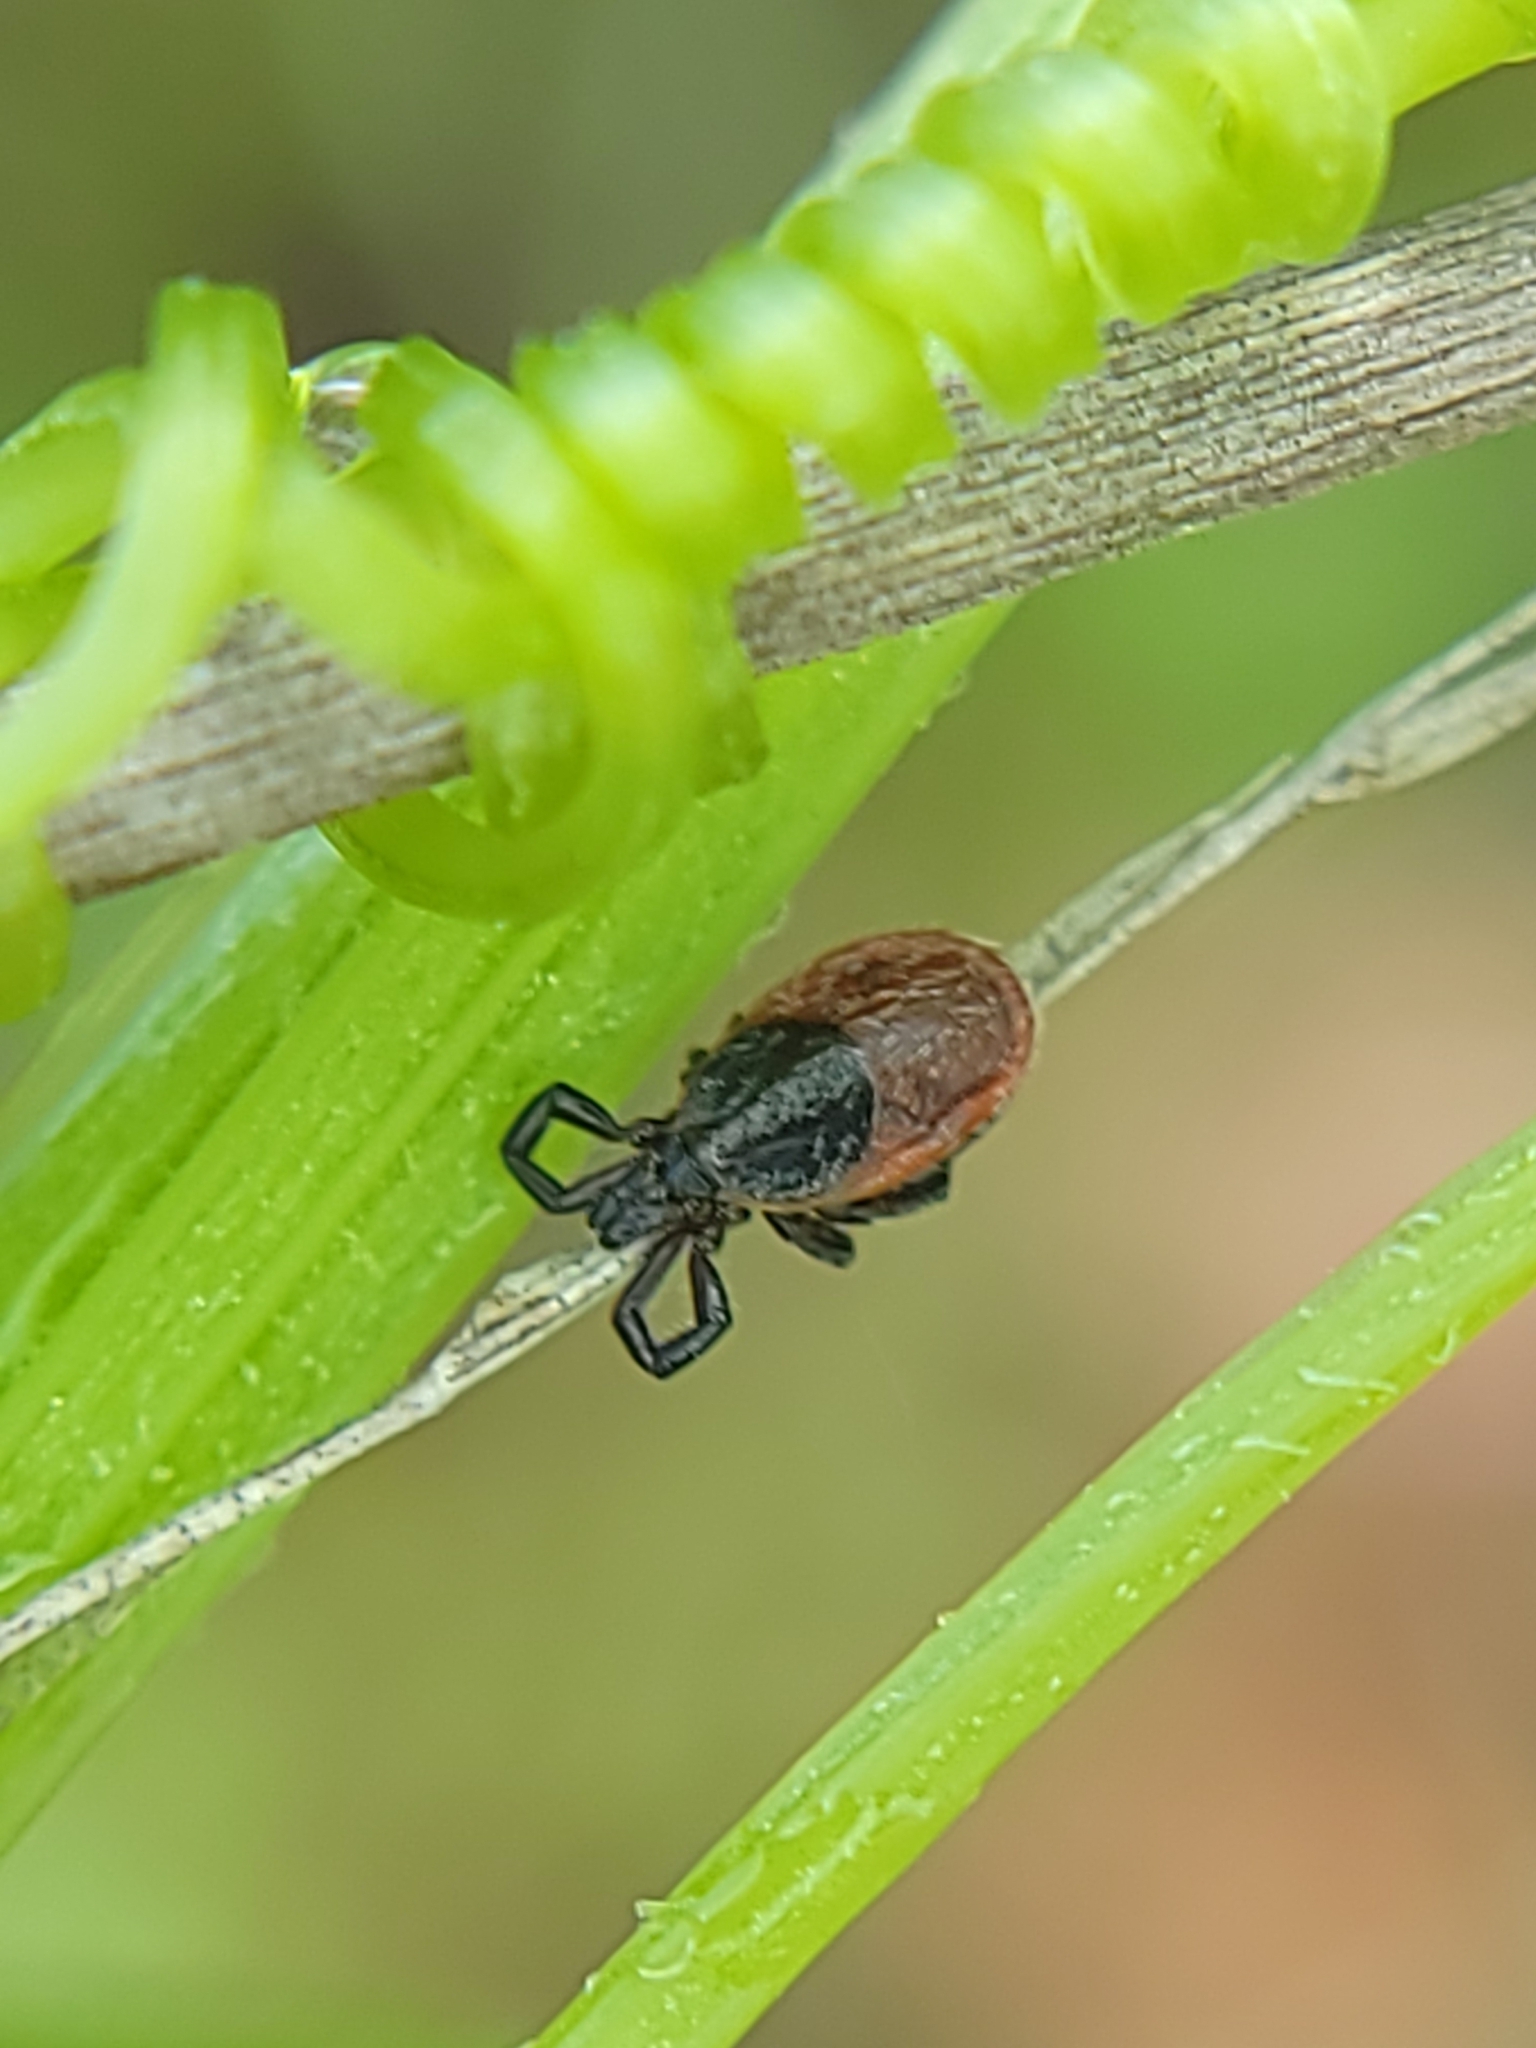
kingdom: Animalia
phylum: Arthropoda
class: Arachnida
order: Ixodida
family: Ixodidae
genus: Ixodes
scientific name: Ixodes pacificus
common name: California black-legged tick
